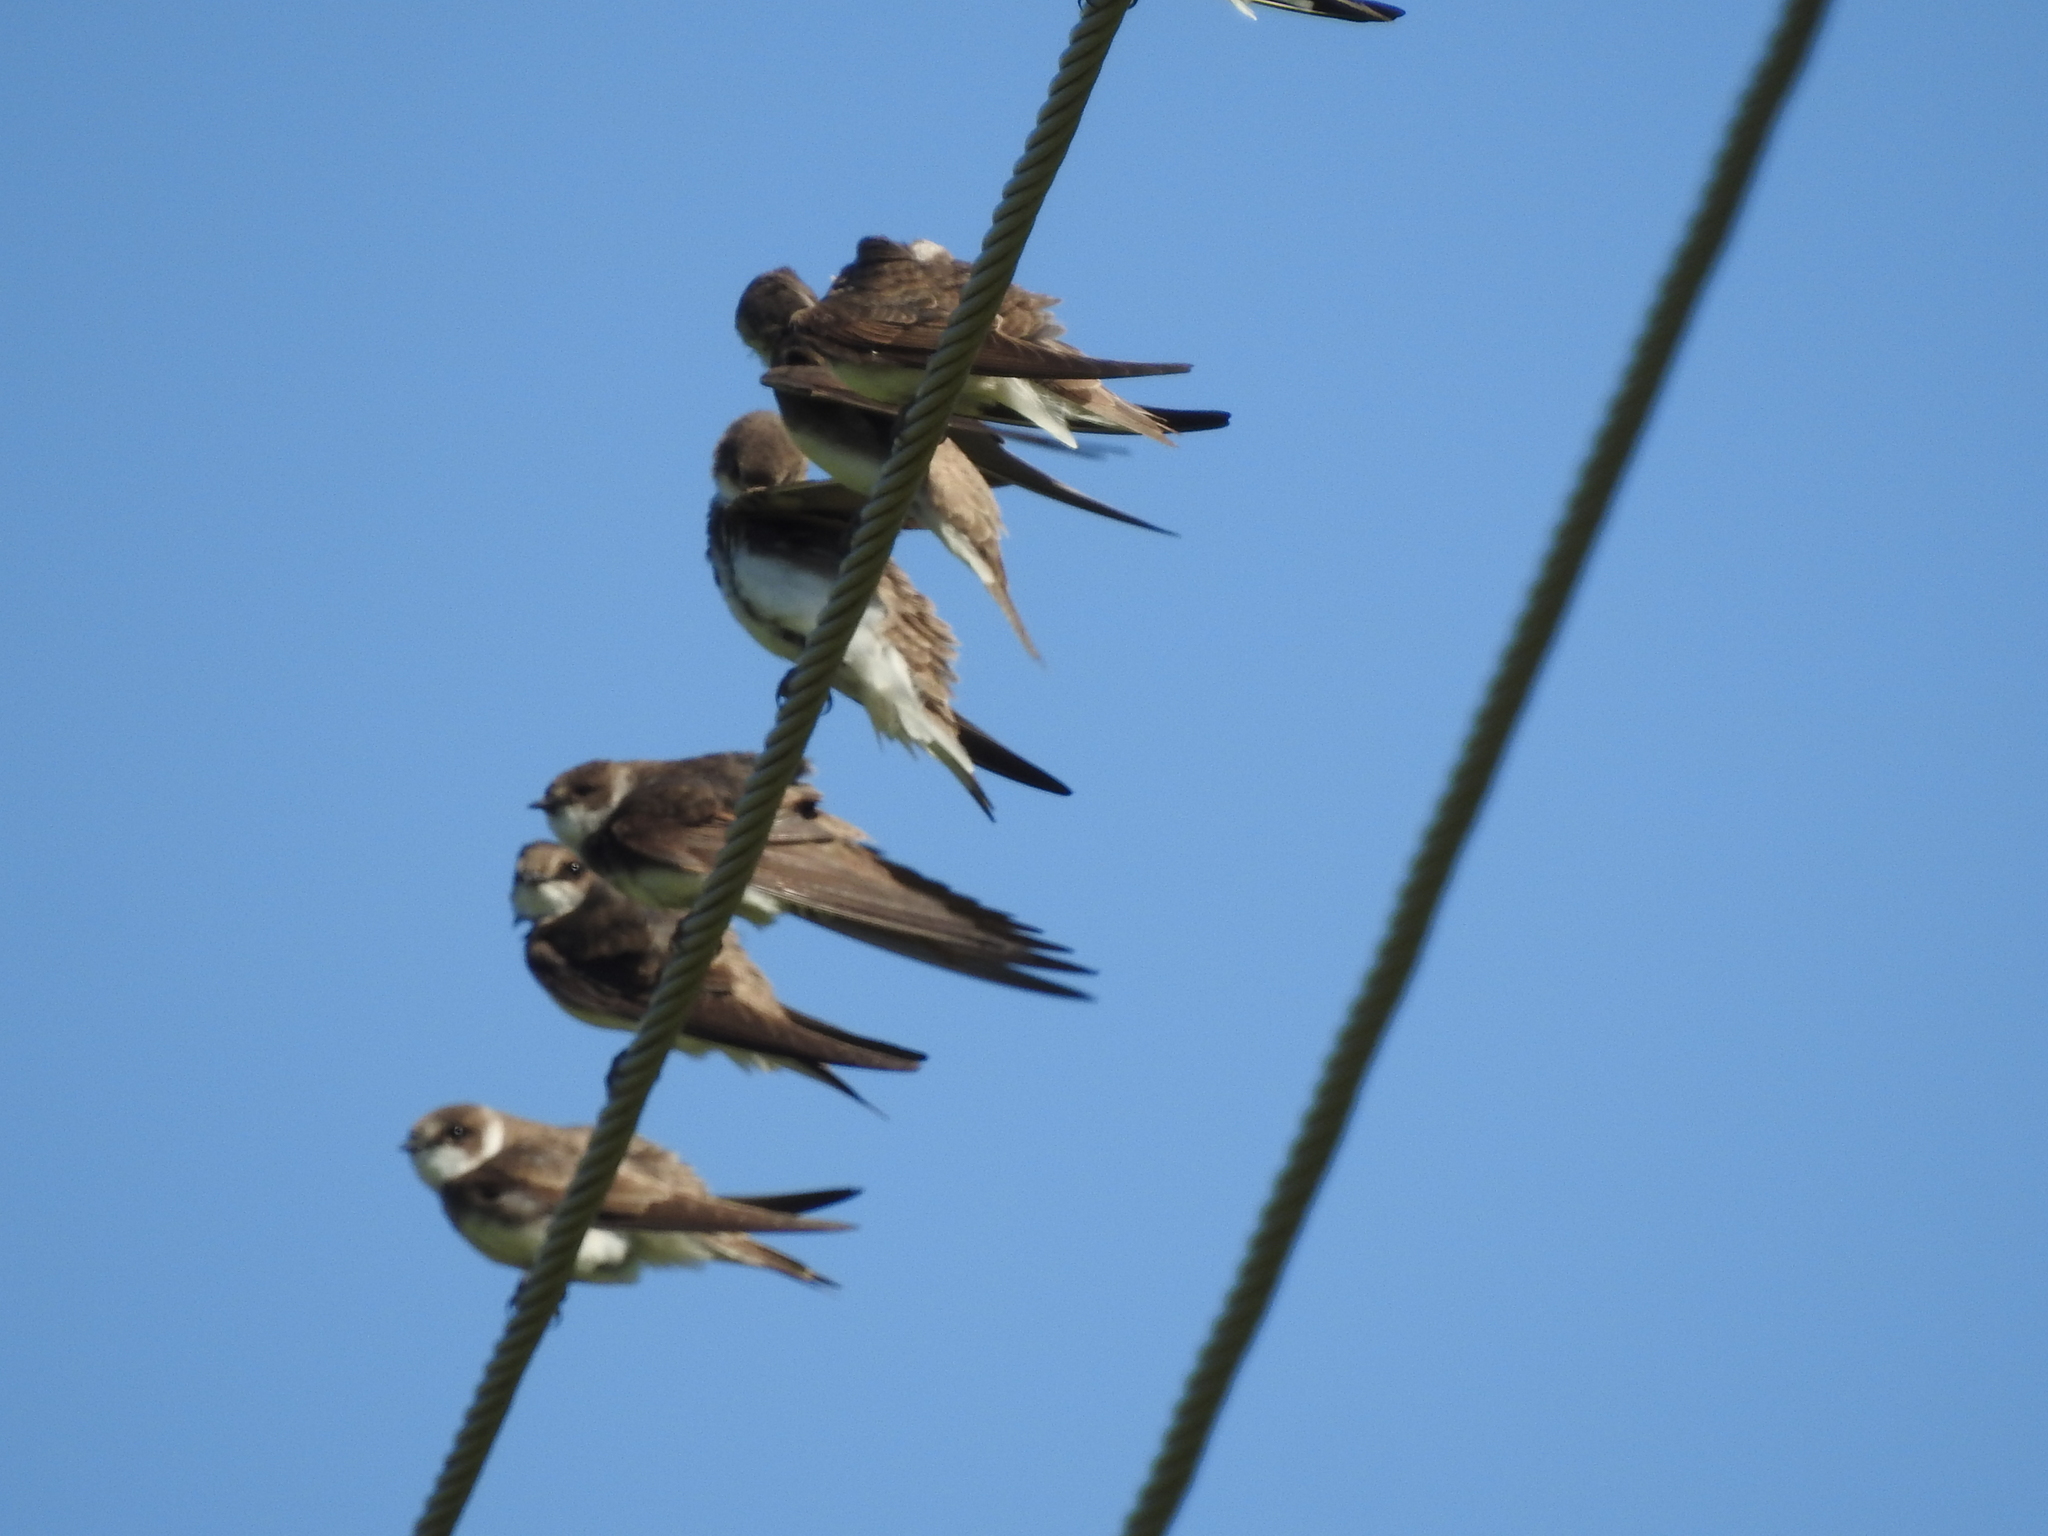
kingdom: Animalia
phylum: Chordata
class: Aves
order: Passeriformes
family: Hirundinidae
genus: Riparia
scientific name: Riparia riparia
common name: Sand martin
